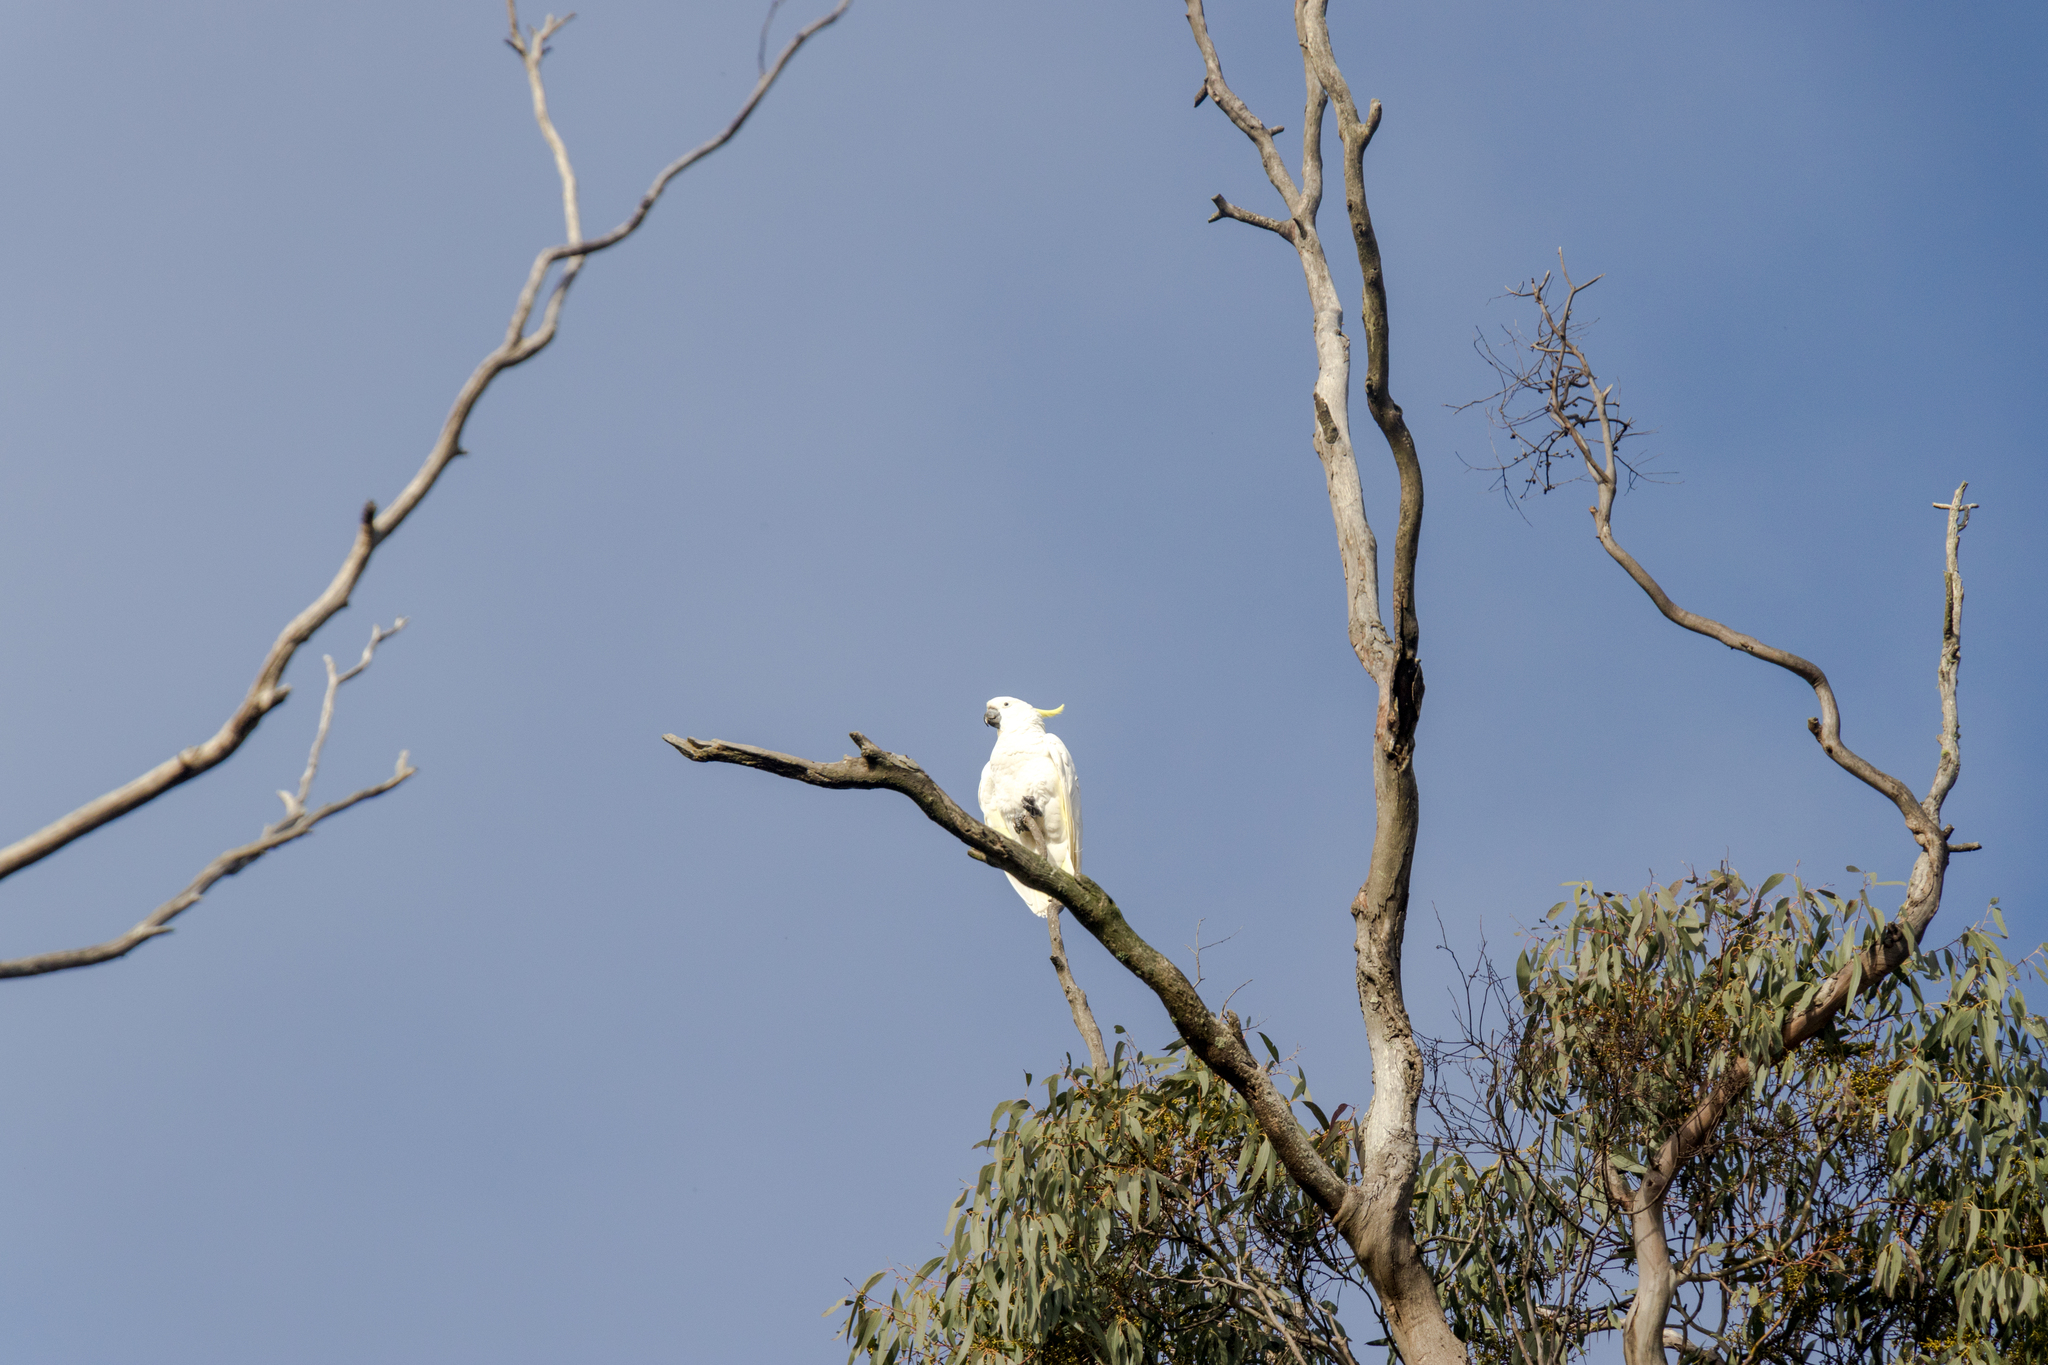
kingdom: Animalia
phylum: Chordata
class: Aves
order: Psittaciformes
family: Psittacidae
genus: Cacatua
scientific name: Cacatua galerita
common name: Sulphur-crested cockatoo
